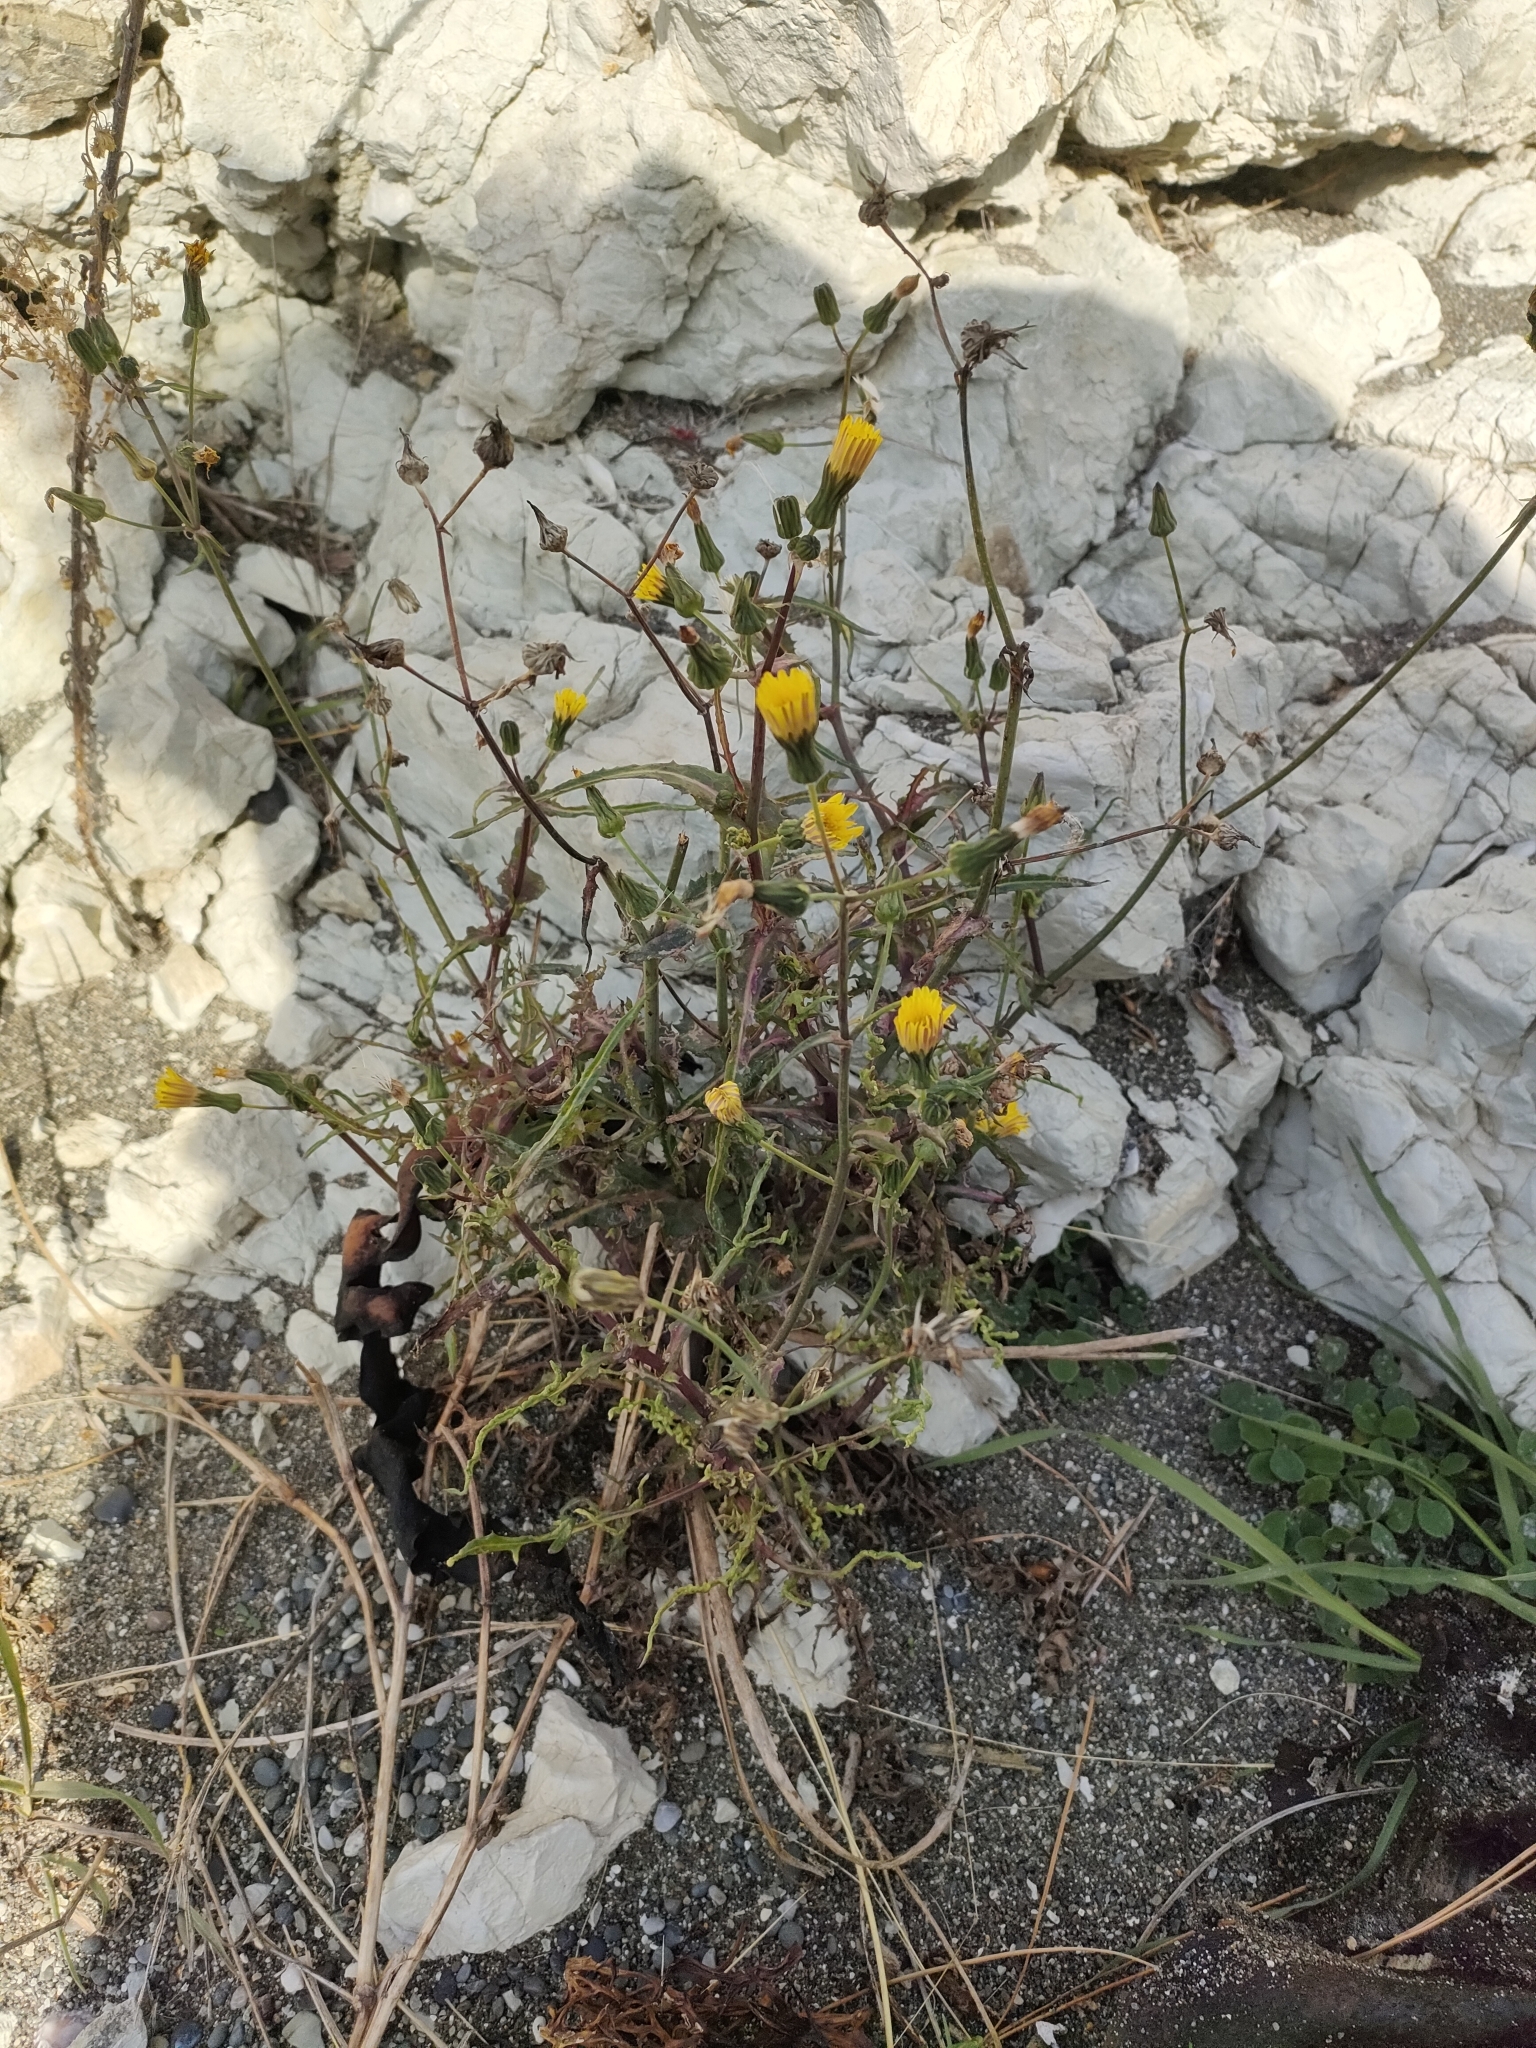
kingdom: Plantae
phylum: Tracheophyta
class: Magnoliopsida
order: Asterales
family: Asteraceae
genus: Sonchus
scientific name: Sonchus oleraceus
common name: Common sowthistle
